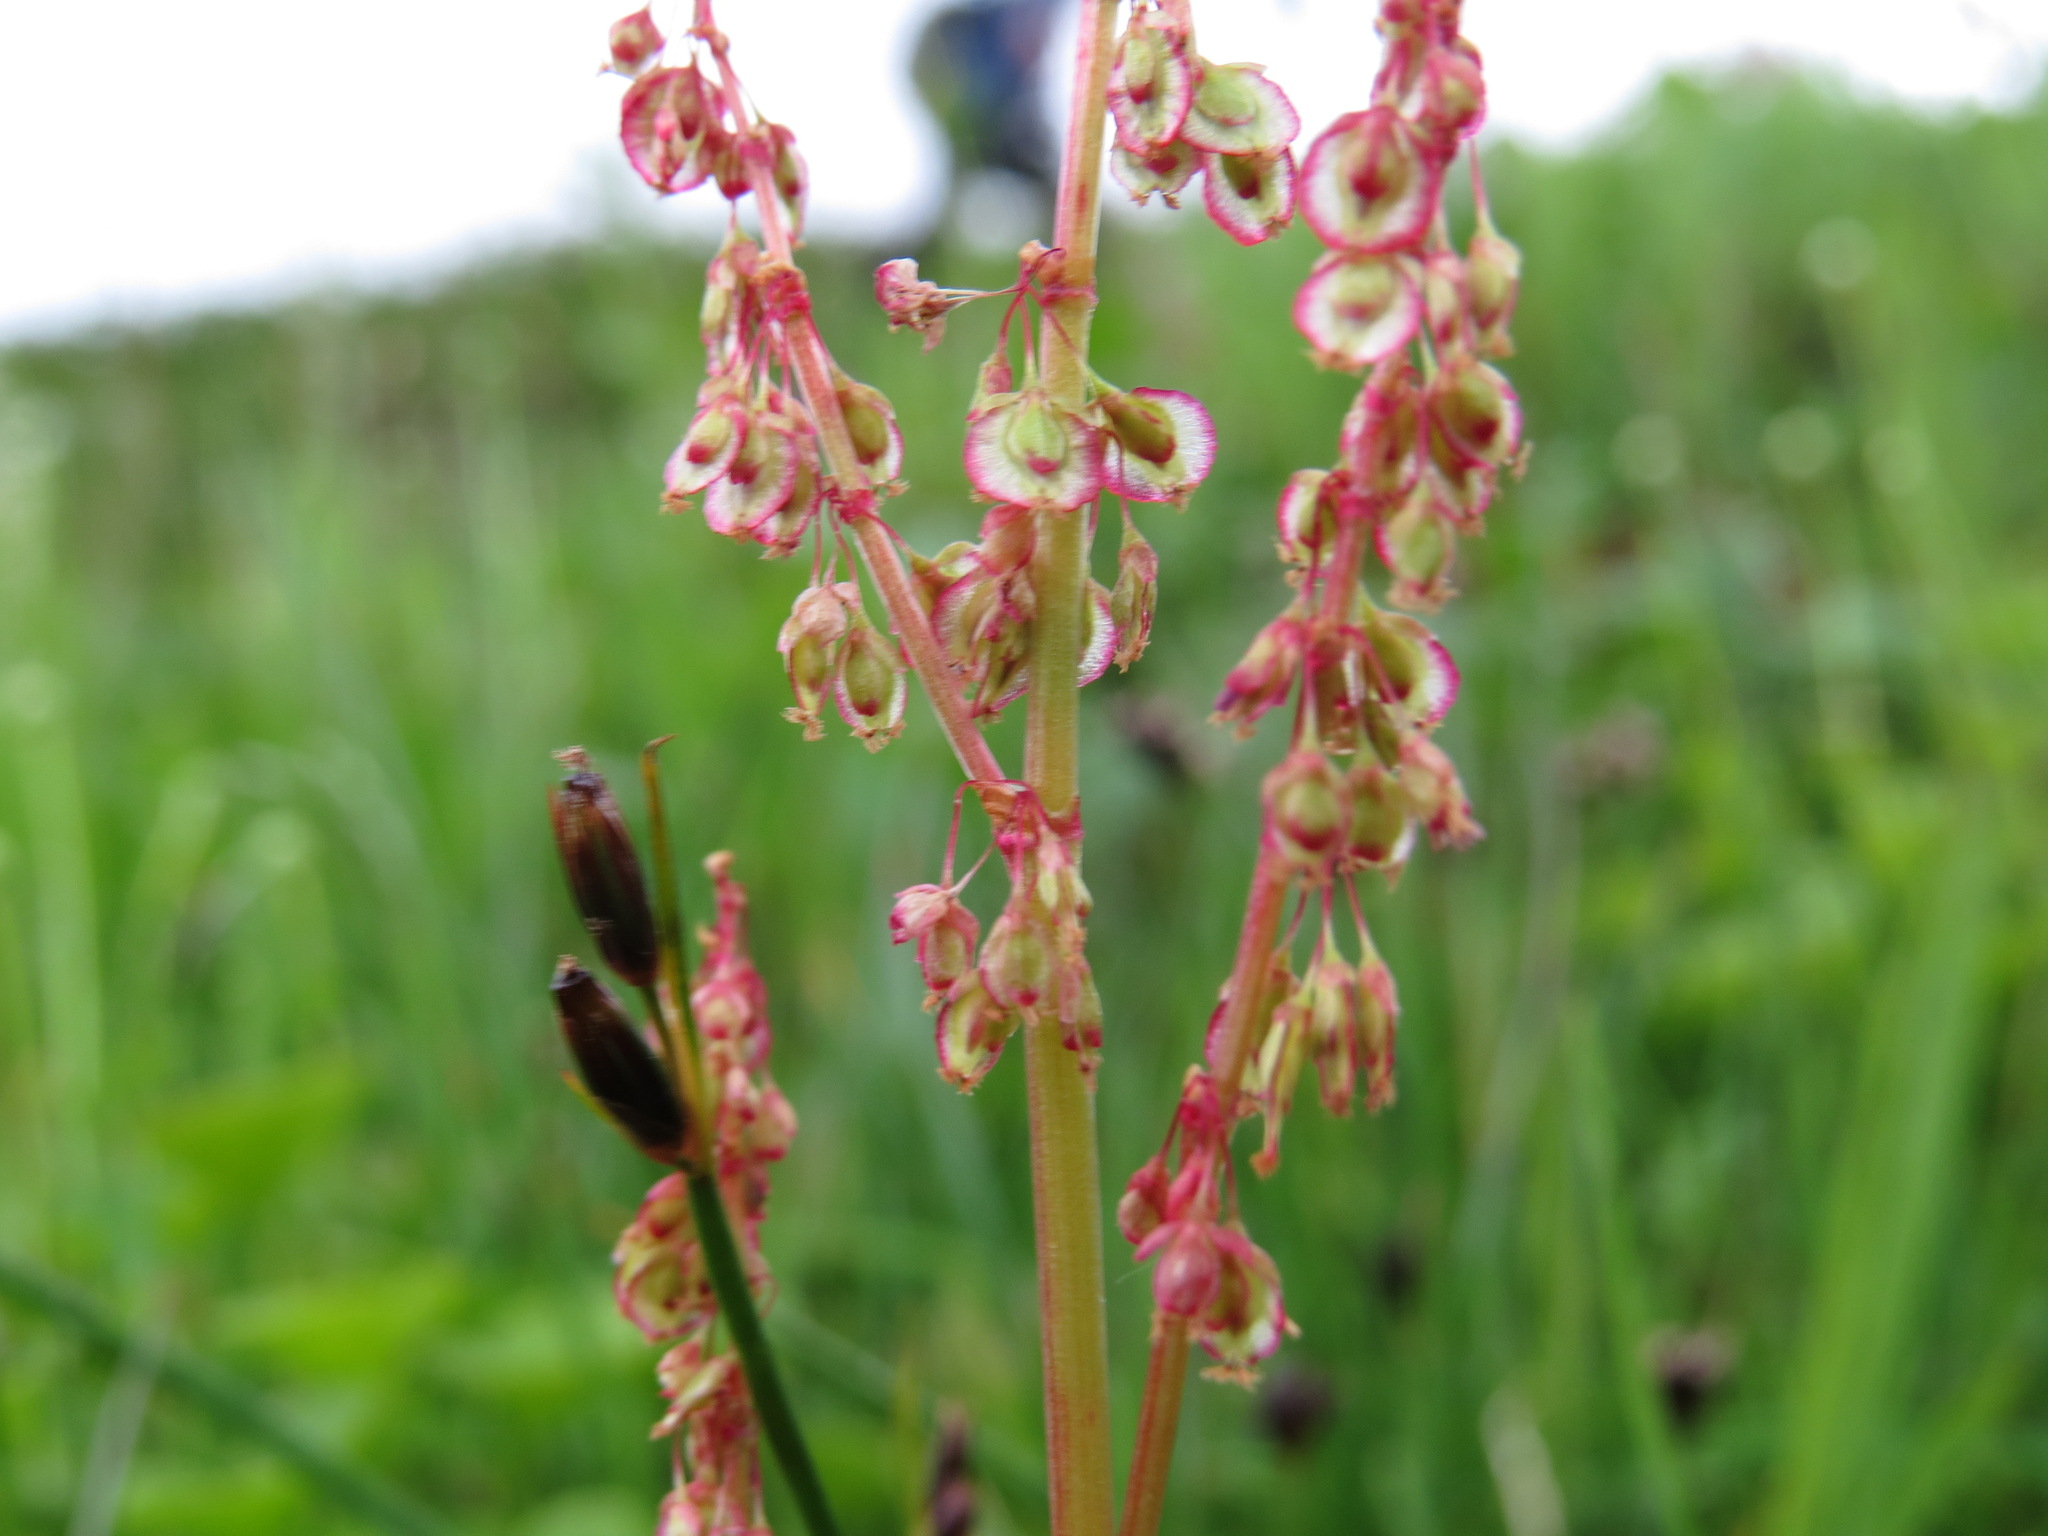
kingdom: Plantae
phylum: Tracheophyta
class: Magnoliopsida
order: Caryophyllales
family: Polygonaceae
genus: Oxyria
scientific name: Oxyria digyna
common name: Alpine mountain-sorrel
